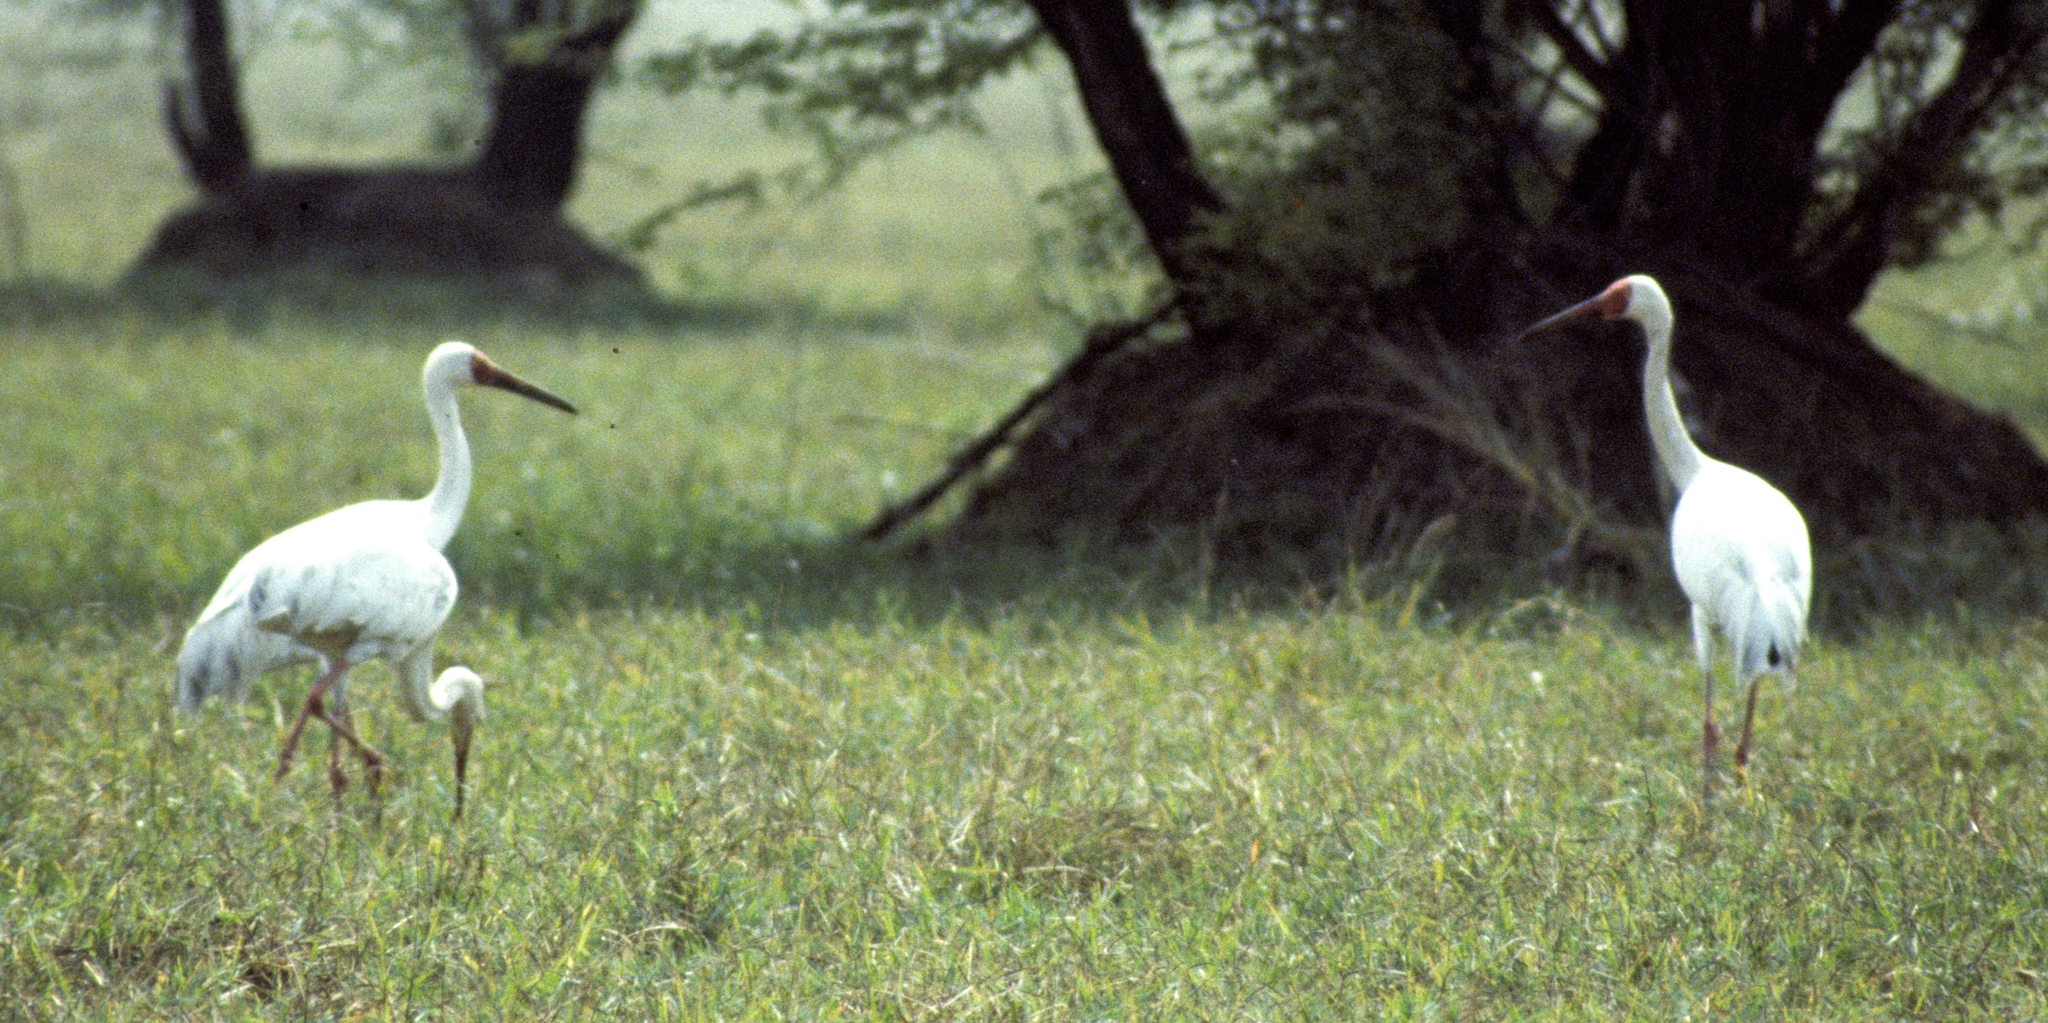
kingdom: Animalia
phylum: Chordata
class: Aves
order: Gruiformes
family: Gruidae
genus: Grus
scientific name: Grus leucogeranus
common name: Siberian crane
